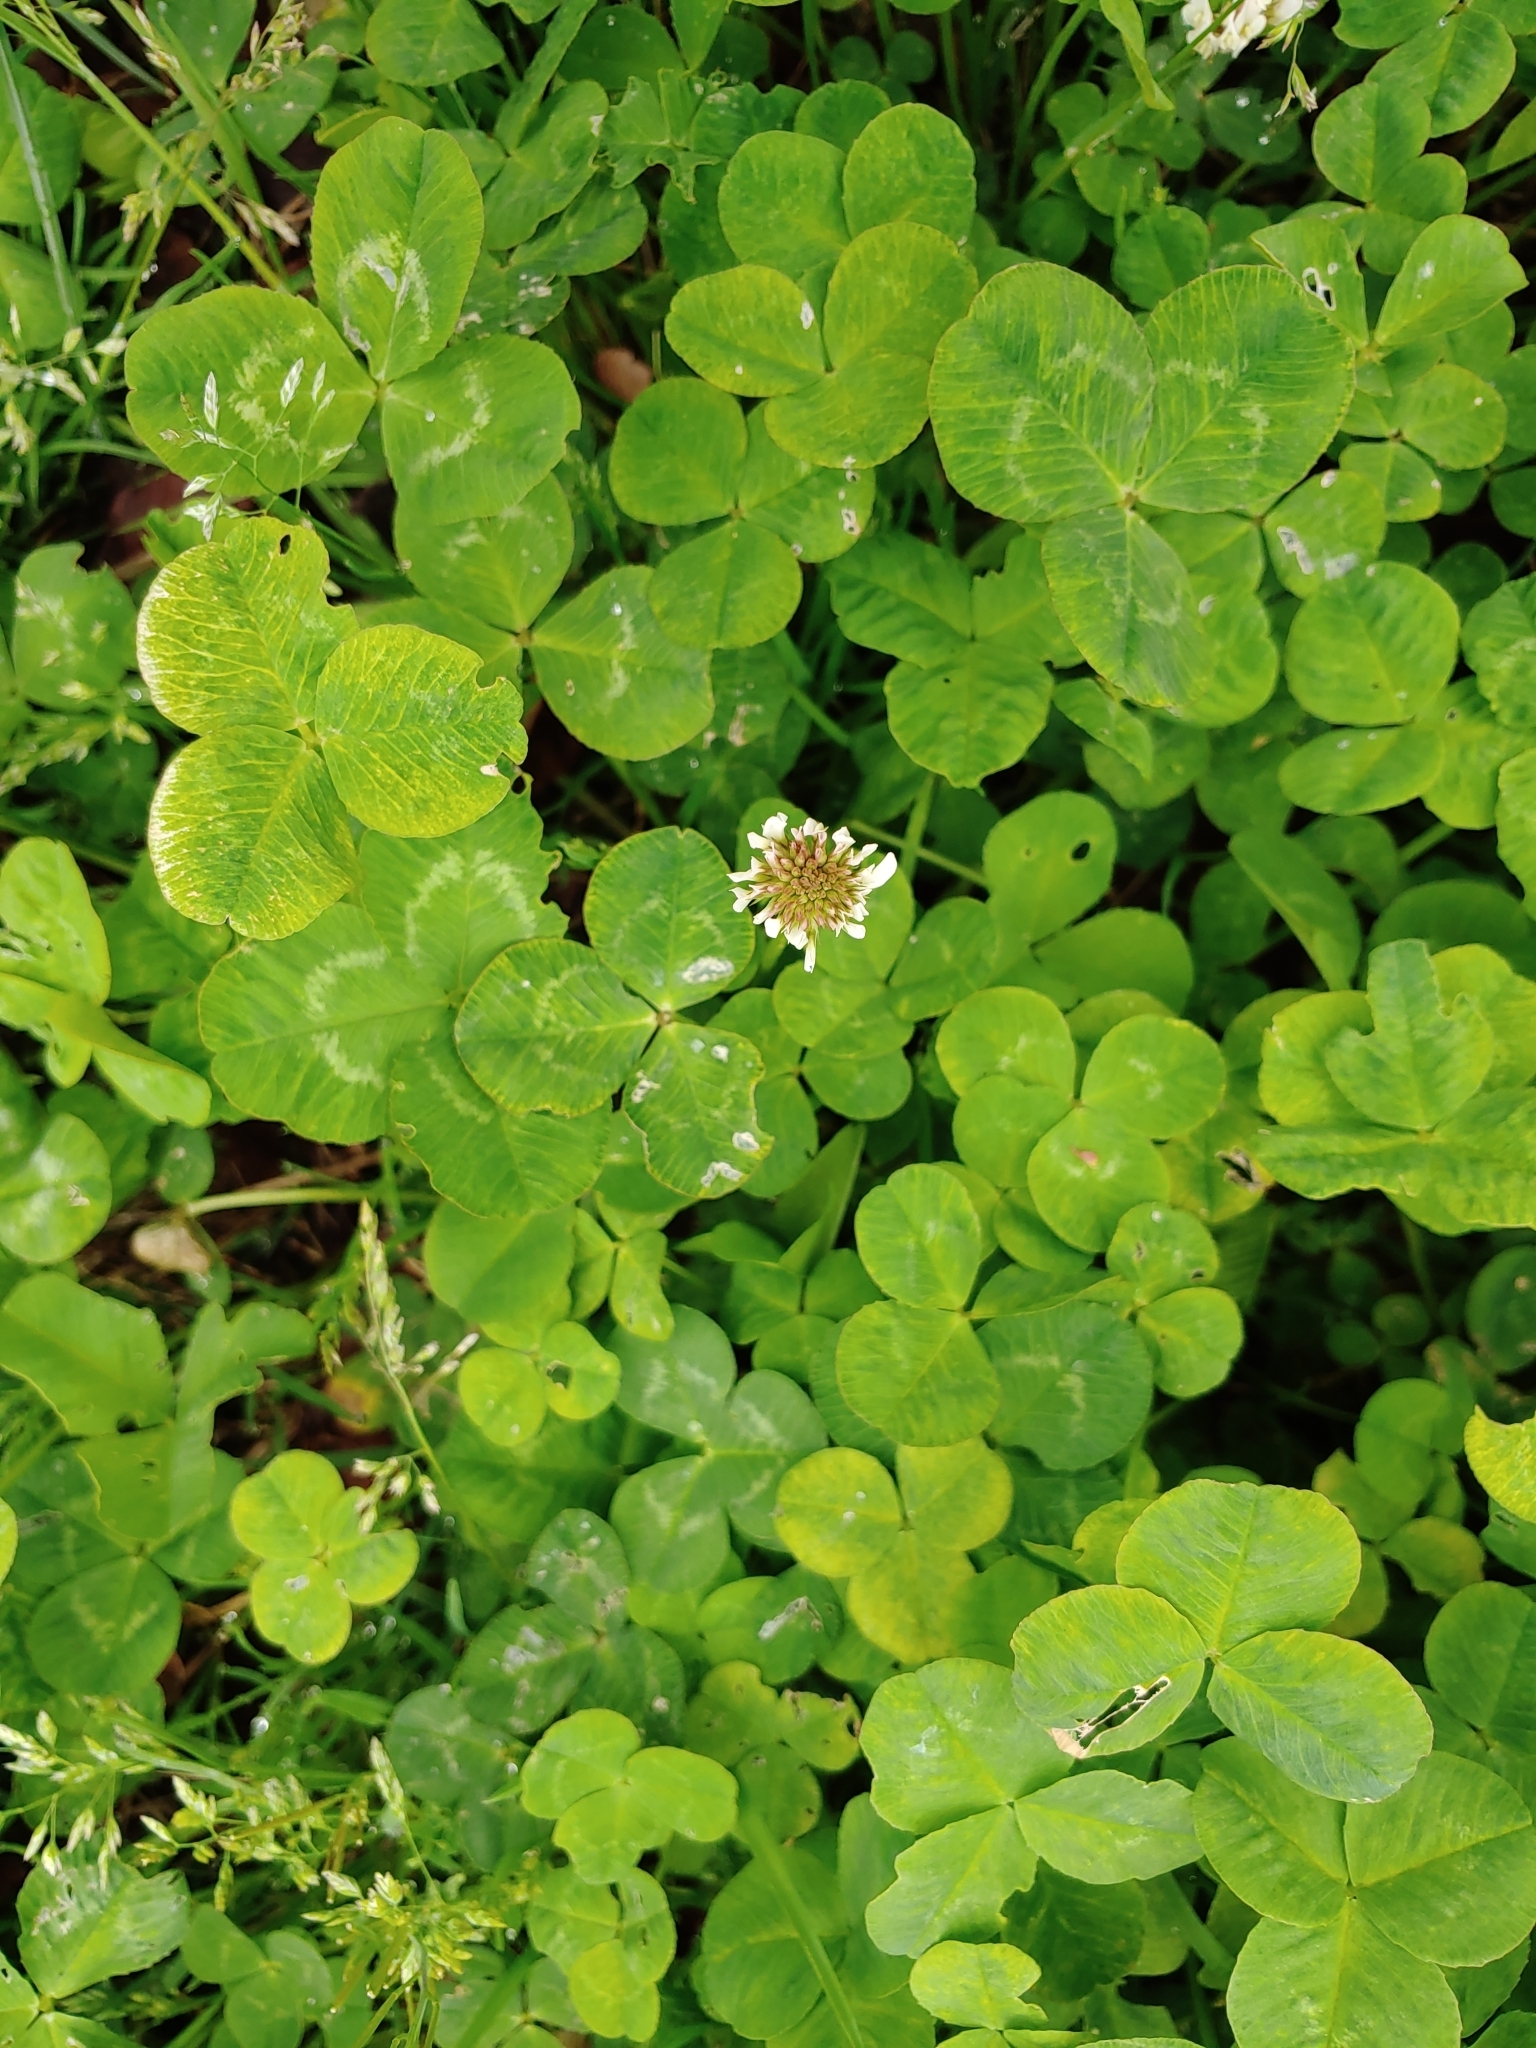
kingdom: Plantae
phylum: Tracheophyta
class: Magnoliopsida
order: Fabales
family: Fabaceae
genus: Trifolium
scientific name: Trifolium repens
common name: White clover
